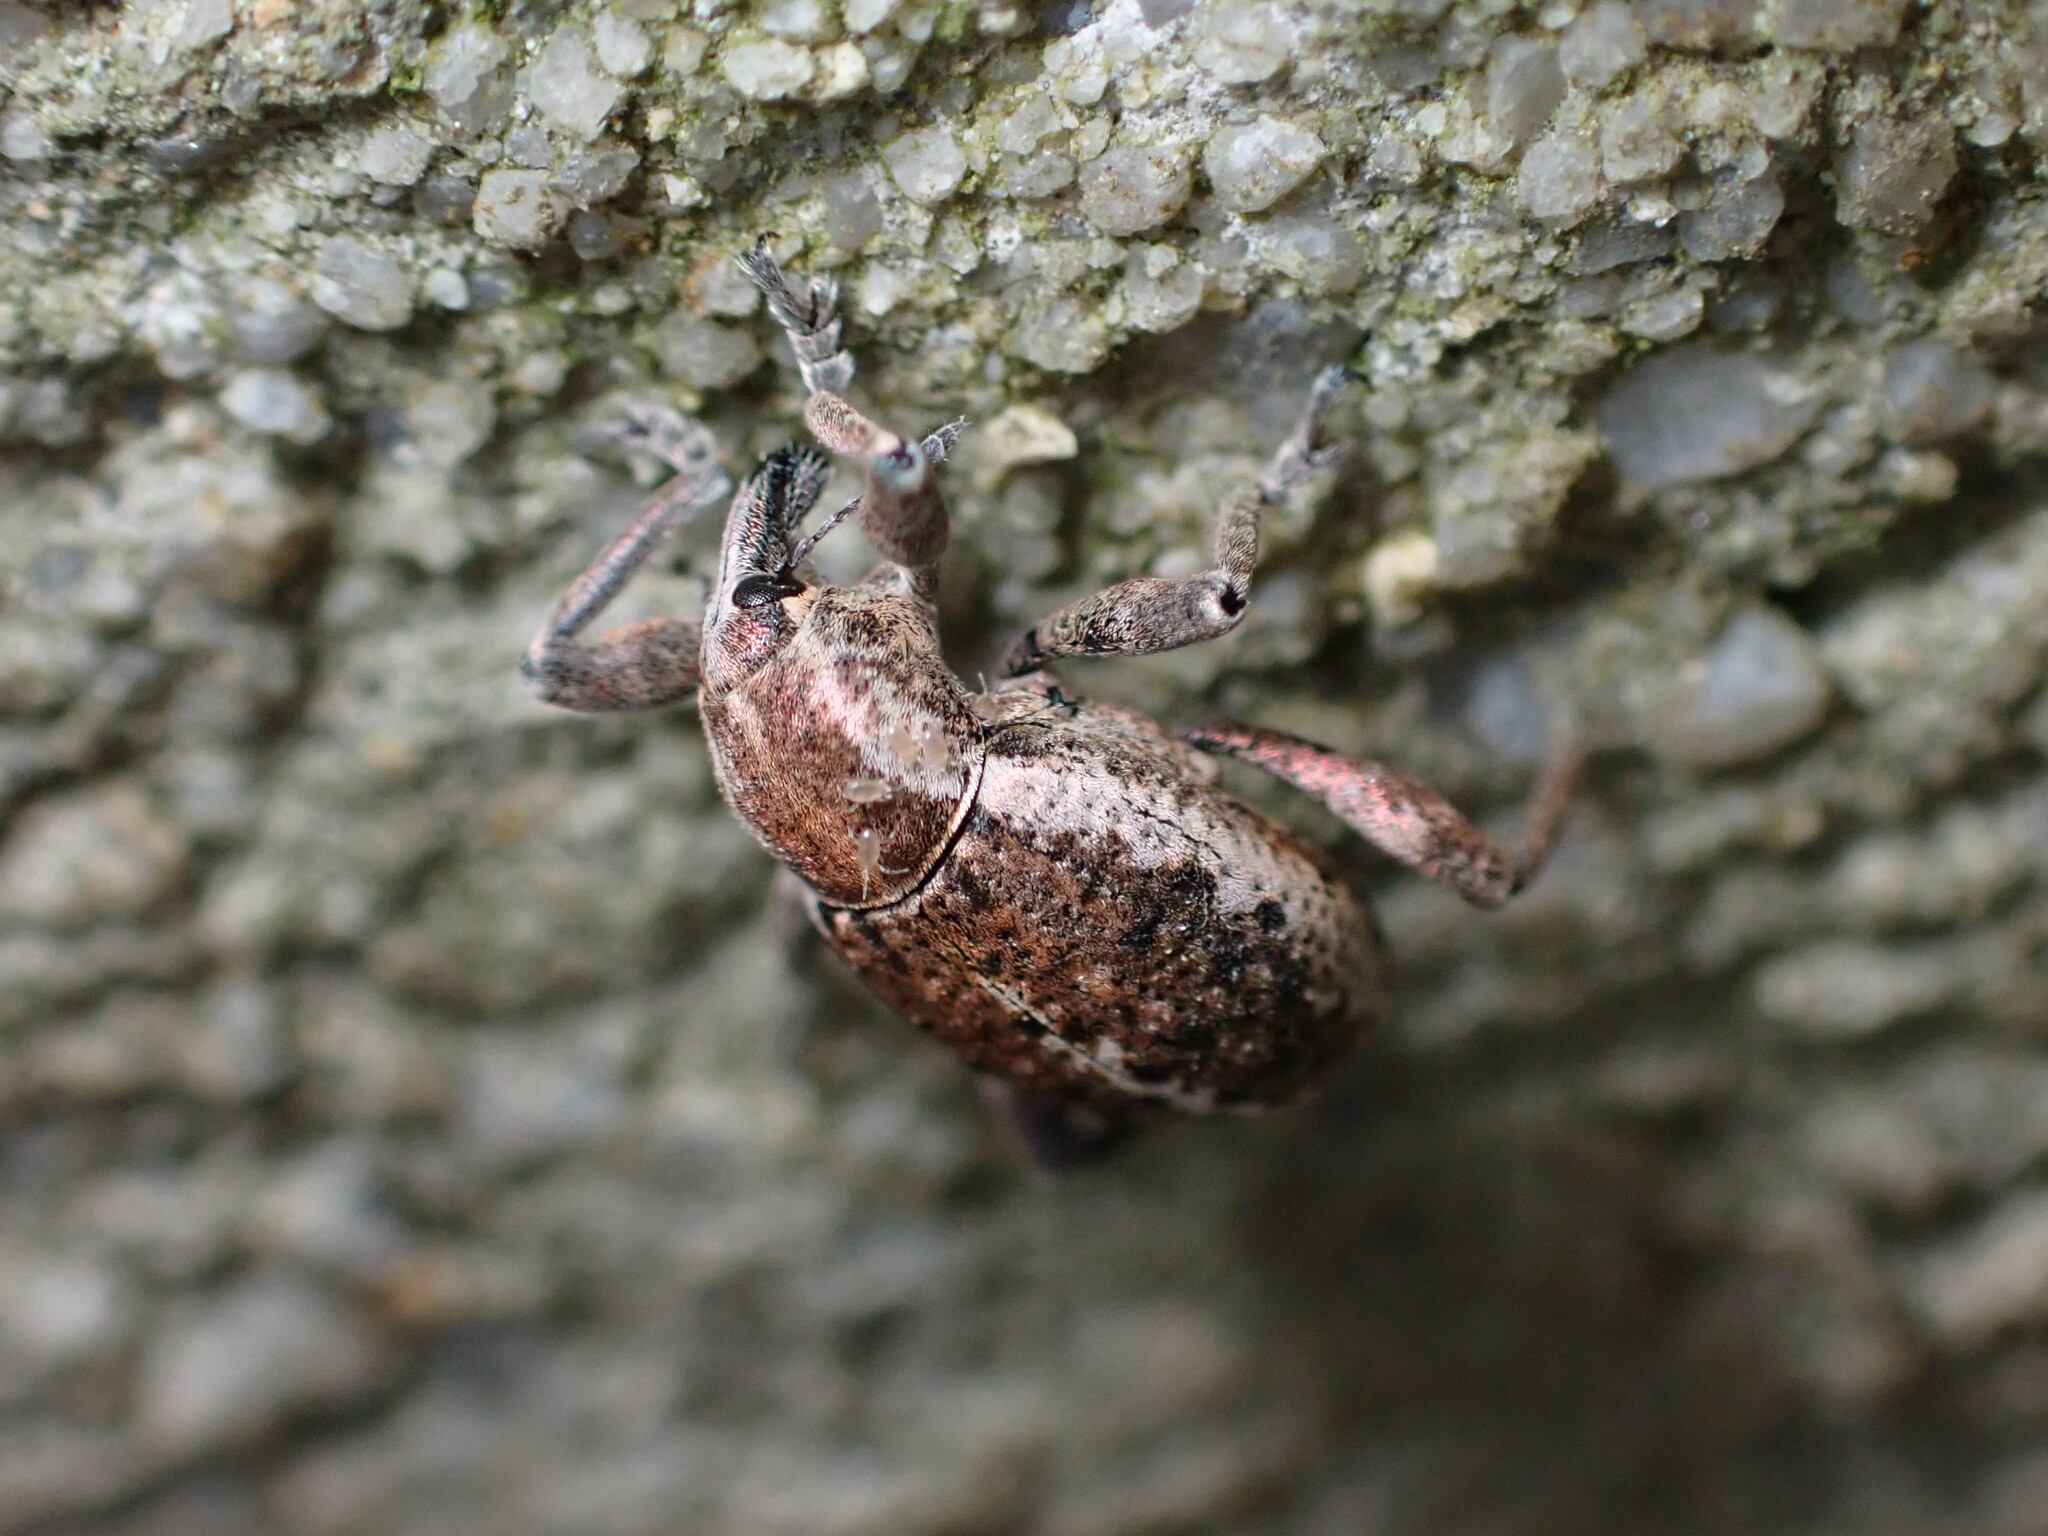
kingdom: Animalia
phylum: Arthropoda
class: Insecta
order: Coleoptera
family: Curculionidae
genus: Donus
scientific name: Donus philanthus
